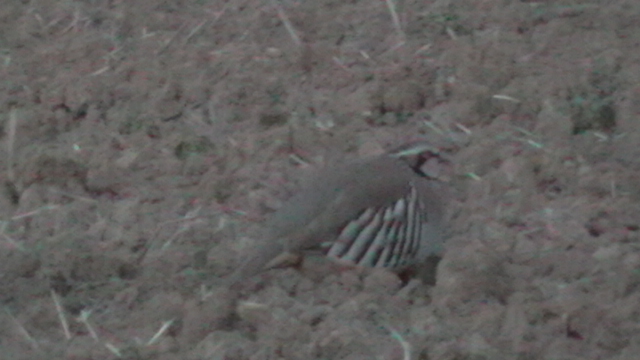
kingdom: Animalia
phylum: Chordata
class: Aves
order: Galliformes
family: Phasianidae
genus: Alectoris
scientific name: Alectoris rufa
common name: Red-legged partridge
